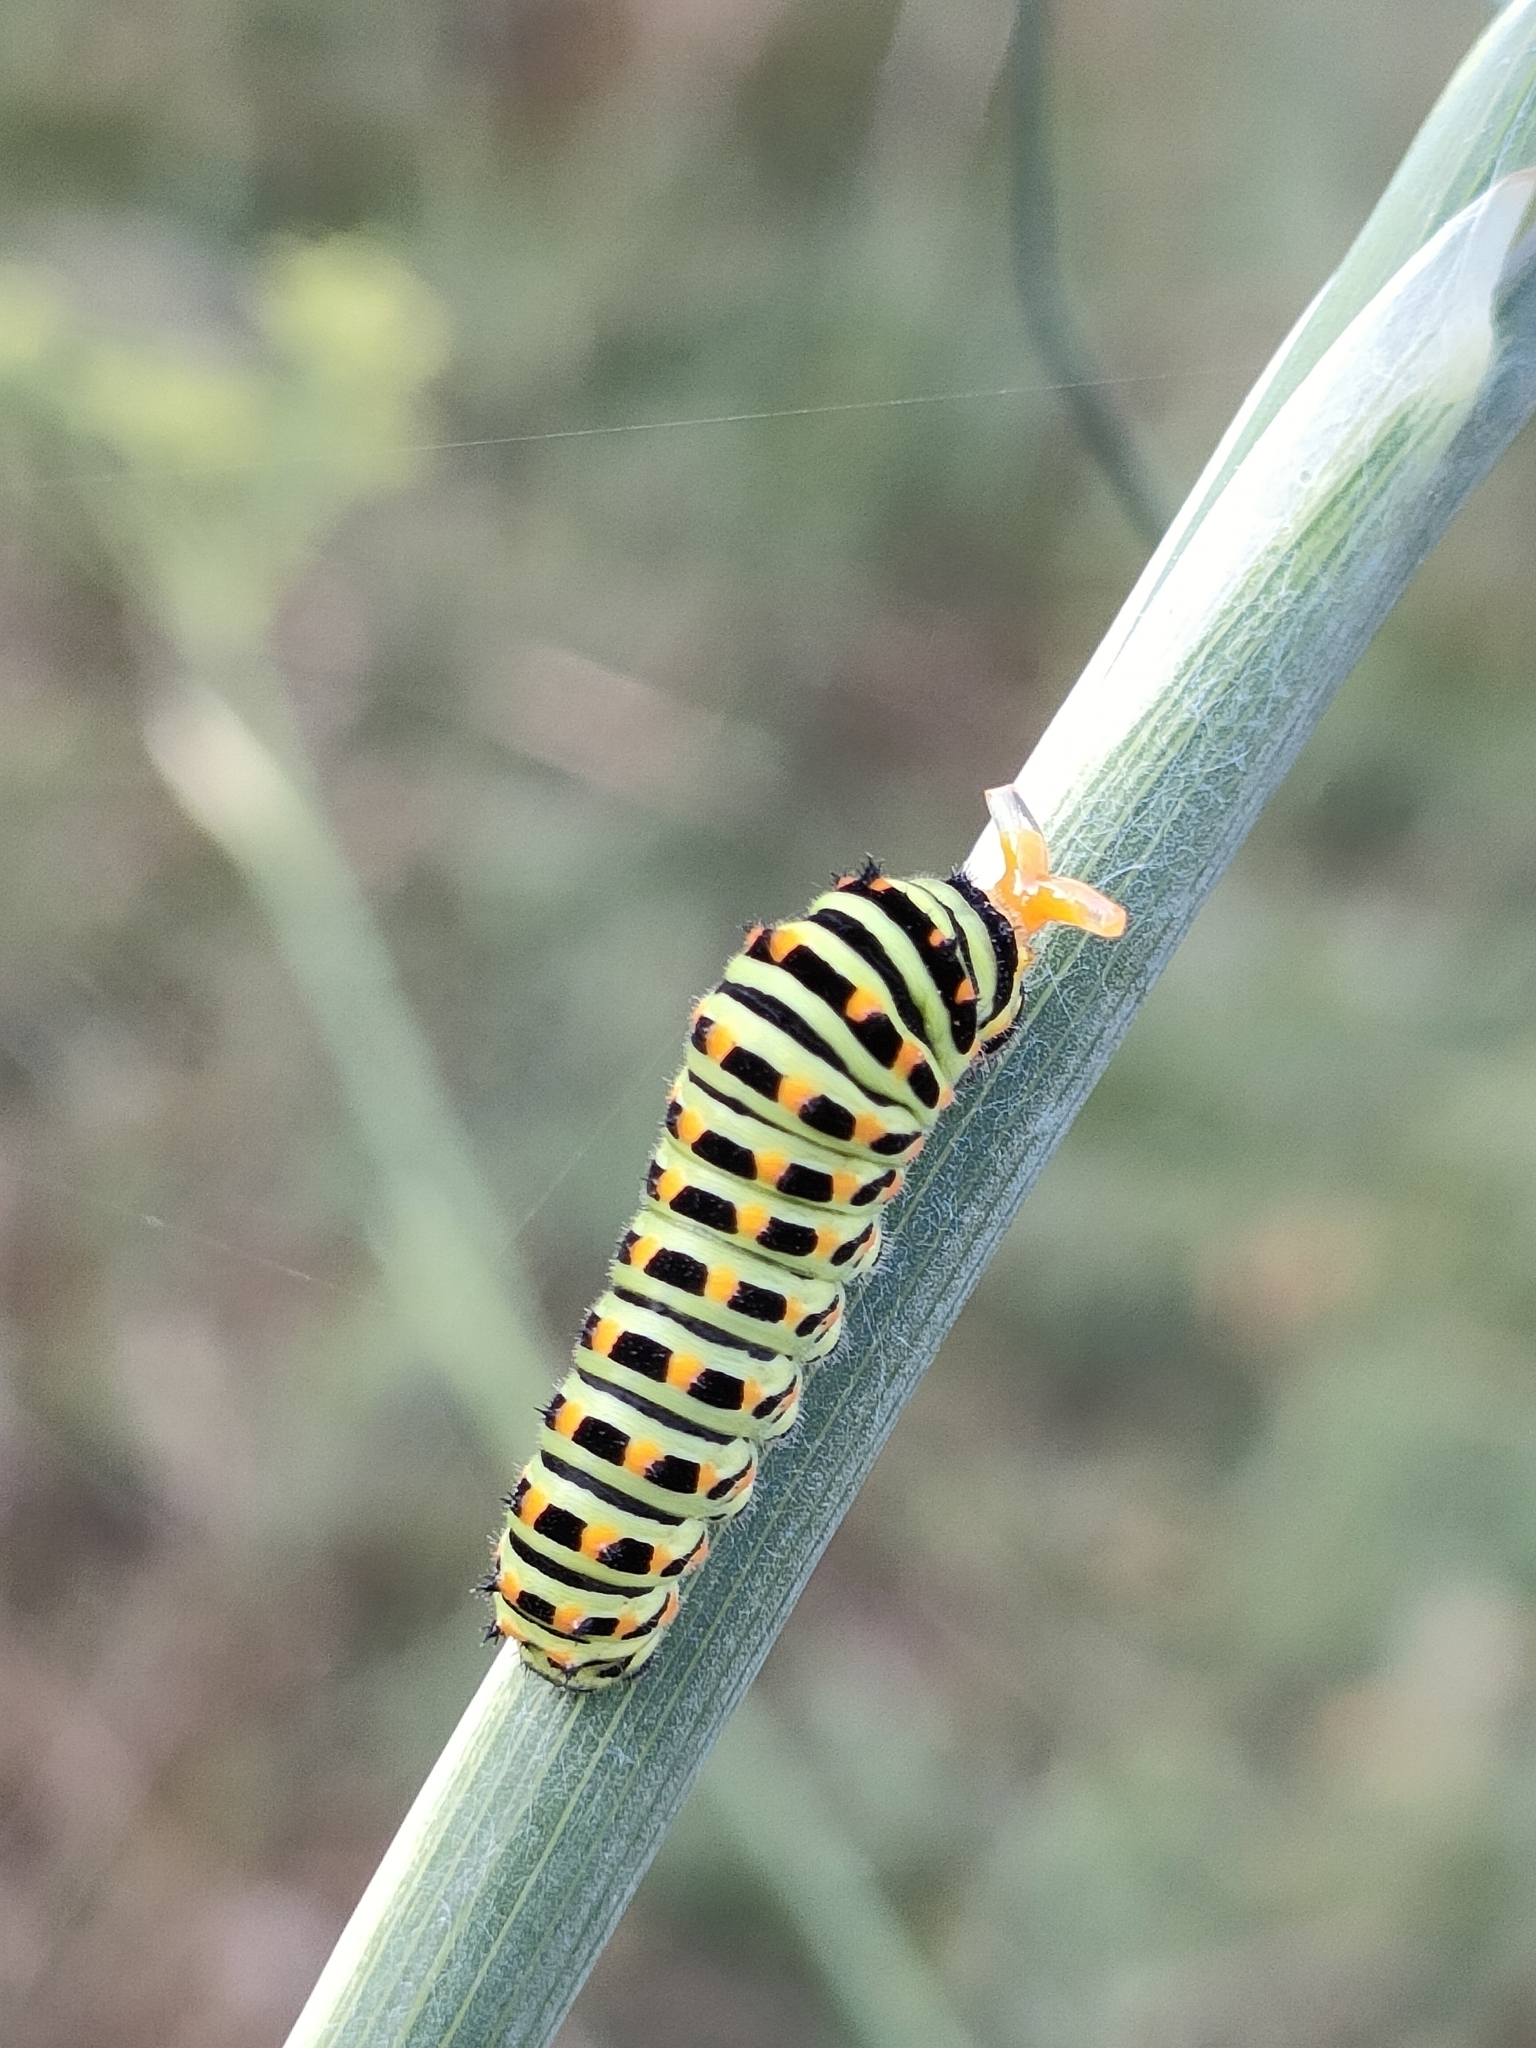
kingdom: Animalia
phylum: Arthropoda
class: Insecta
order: Lepidoptera
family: Papilionidae
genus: Papilio
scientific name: Papilio machaon
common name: Swallowtail
